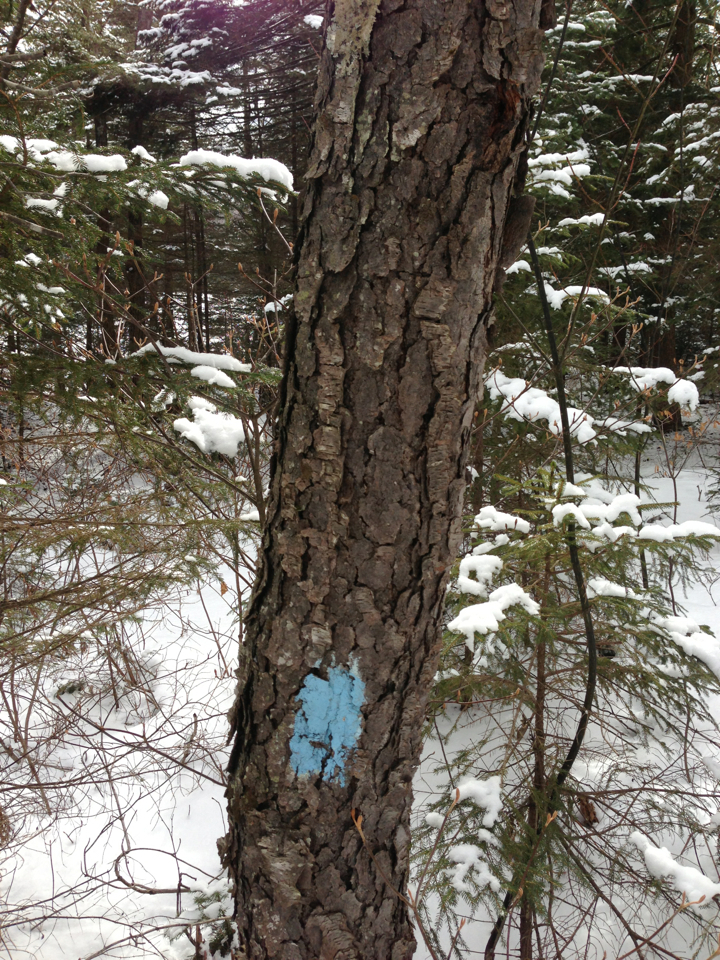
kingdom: Plantae
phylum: Tracheophyta
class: Magnoliopsida
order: Rosales
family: Rosaceae
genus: Prunus
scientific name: Prunus serotina
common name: Black cherry
